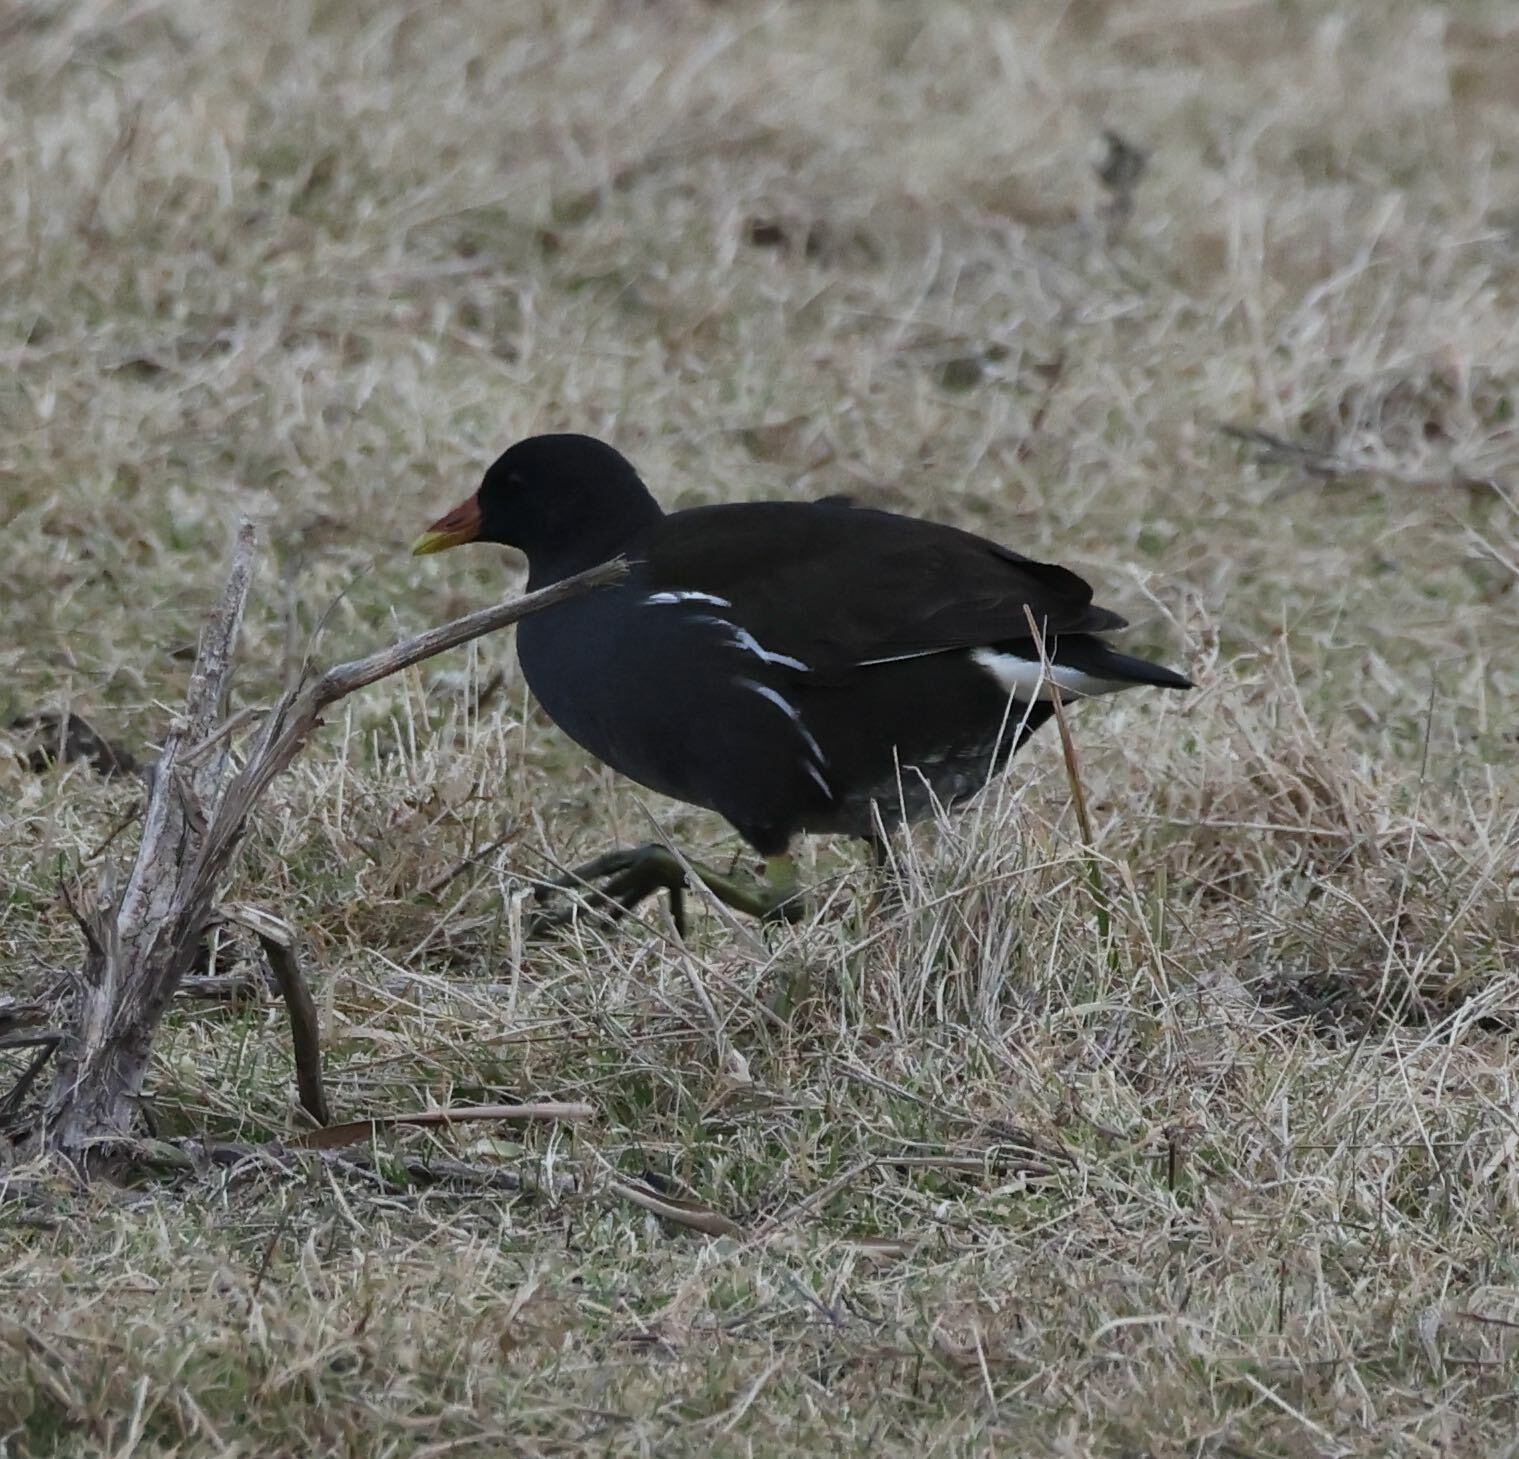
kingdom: Animalia
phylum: Chordata
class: Aves
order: Gruiformes
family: Rallidae
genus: Gallinula
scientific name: Gallinula chloropus
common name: Common moorhen
